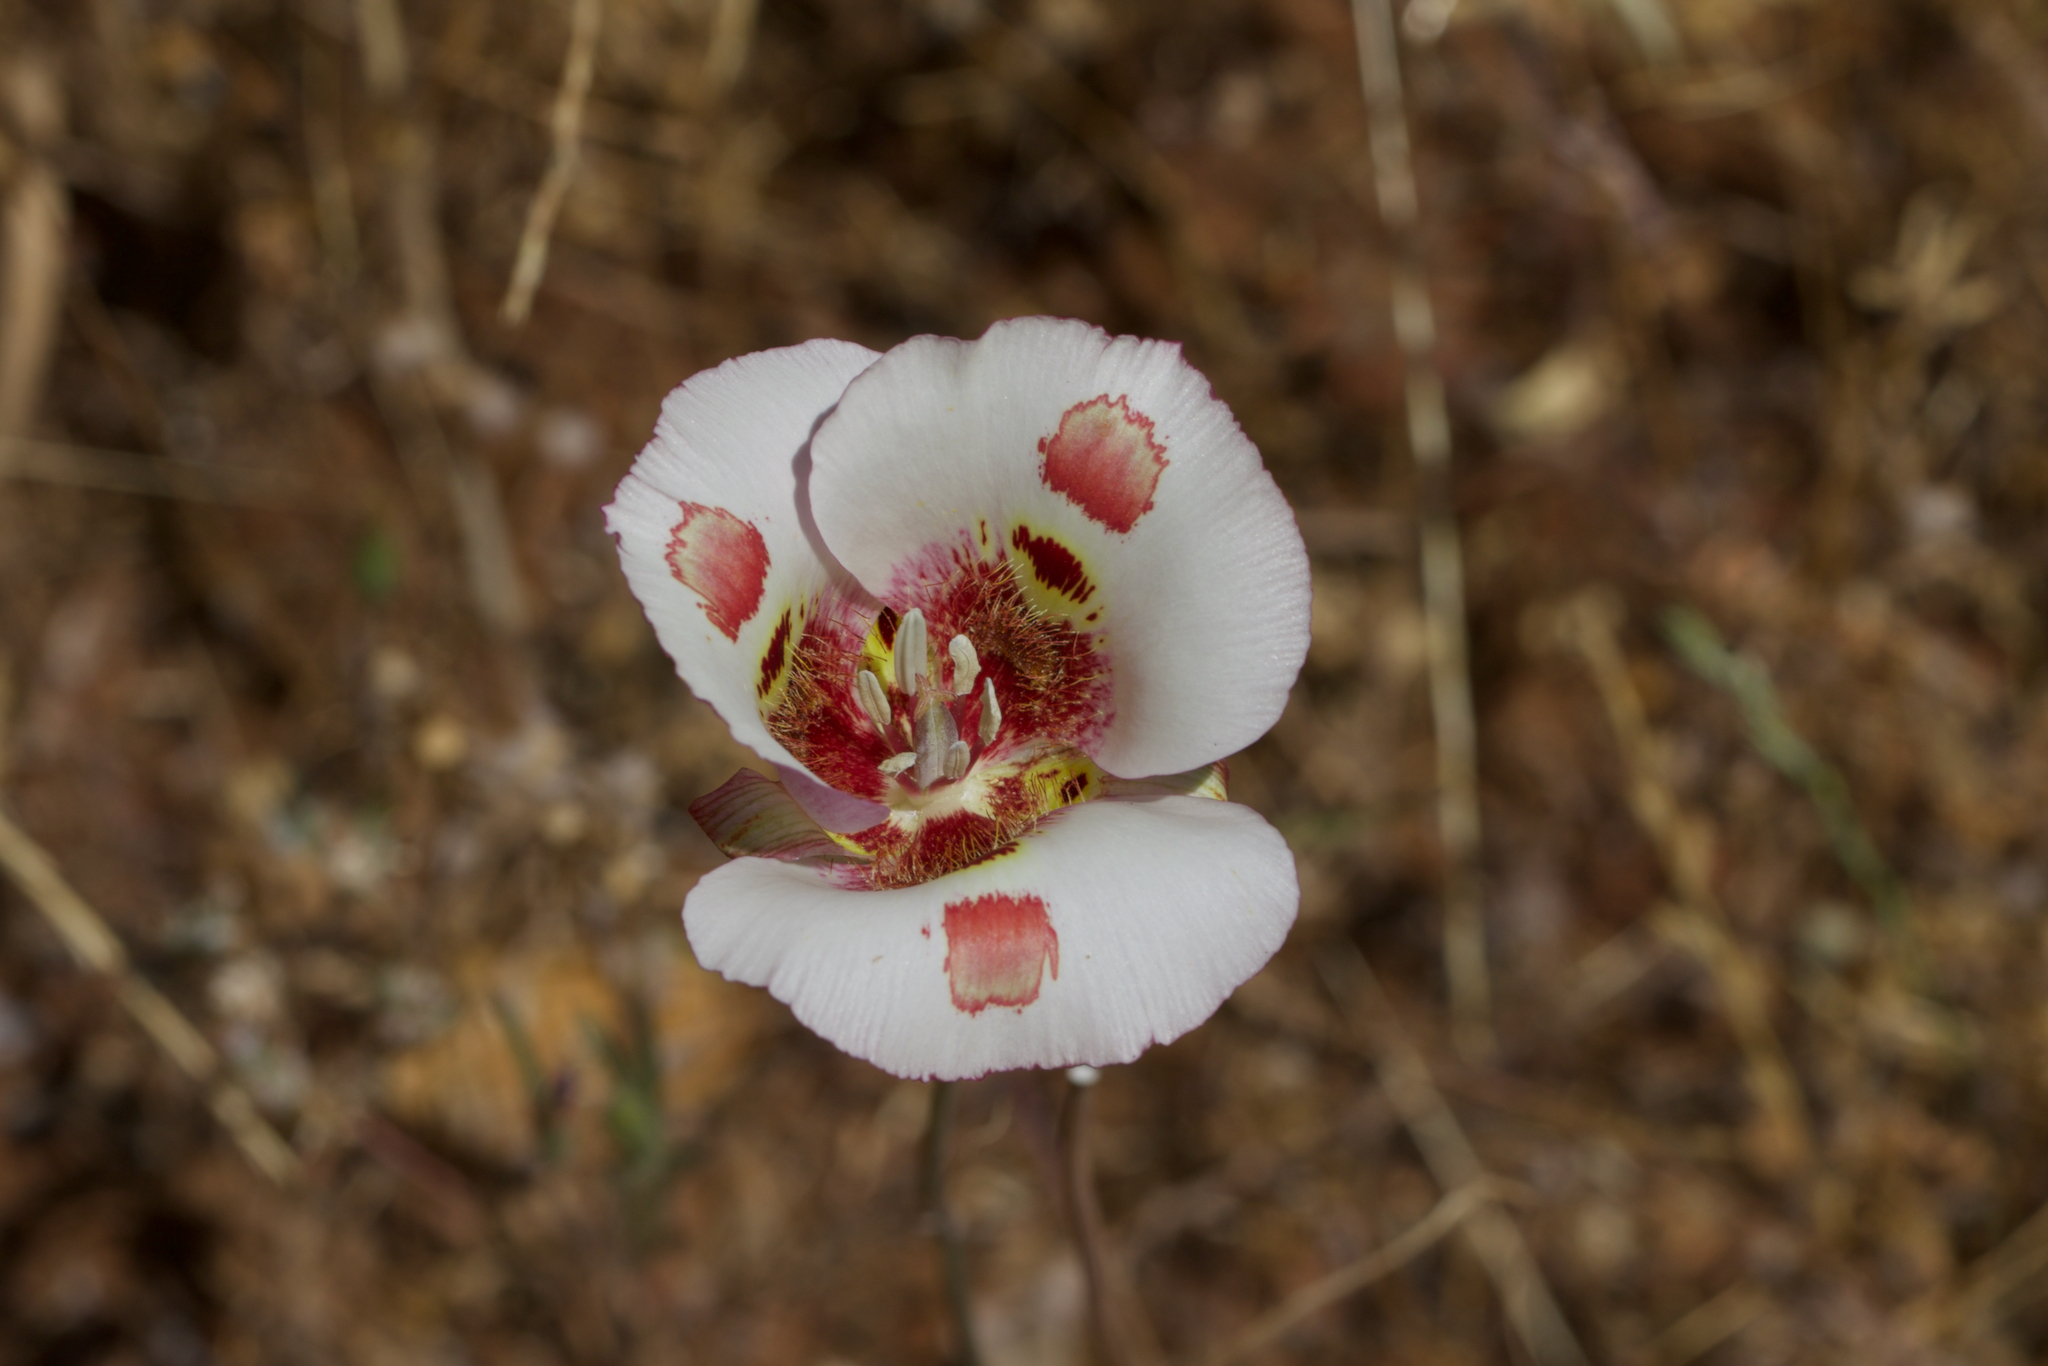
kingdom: Plantae
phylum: Tracheophyta
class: Liliopsida
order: Liliales
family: Liliaceae
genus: Calochortus
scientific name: Calochortus venustus
